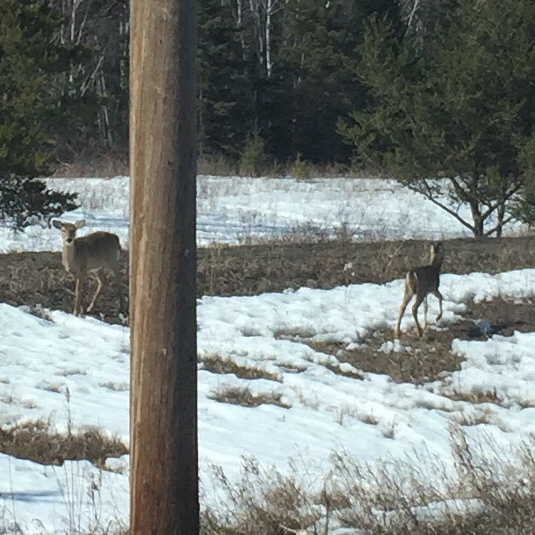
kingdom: Animalia
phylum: Chordata
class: Mammalia
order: Artiodactyla
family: Cervidae
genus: Odocoileus
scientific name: Odocoileus virginianus
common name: White-tailed deer
